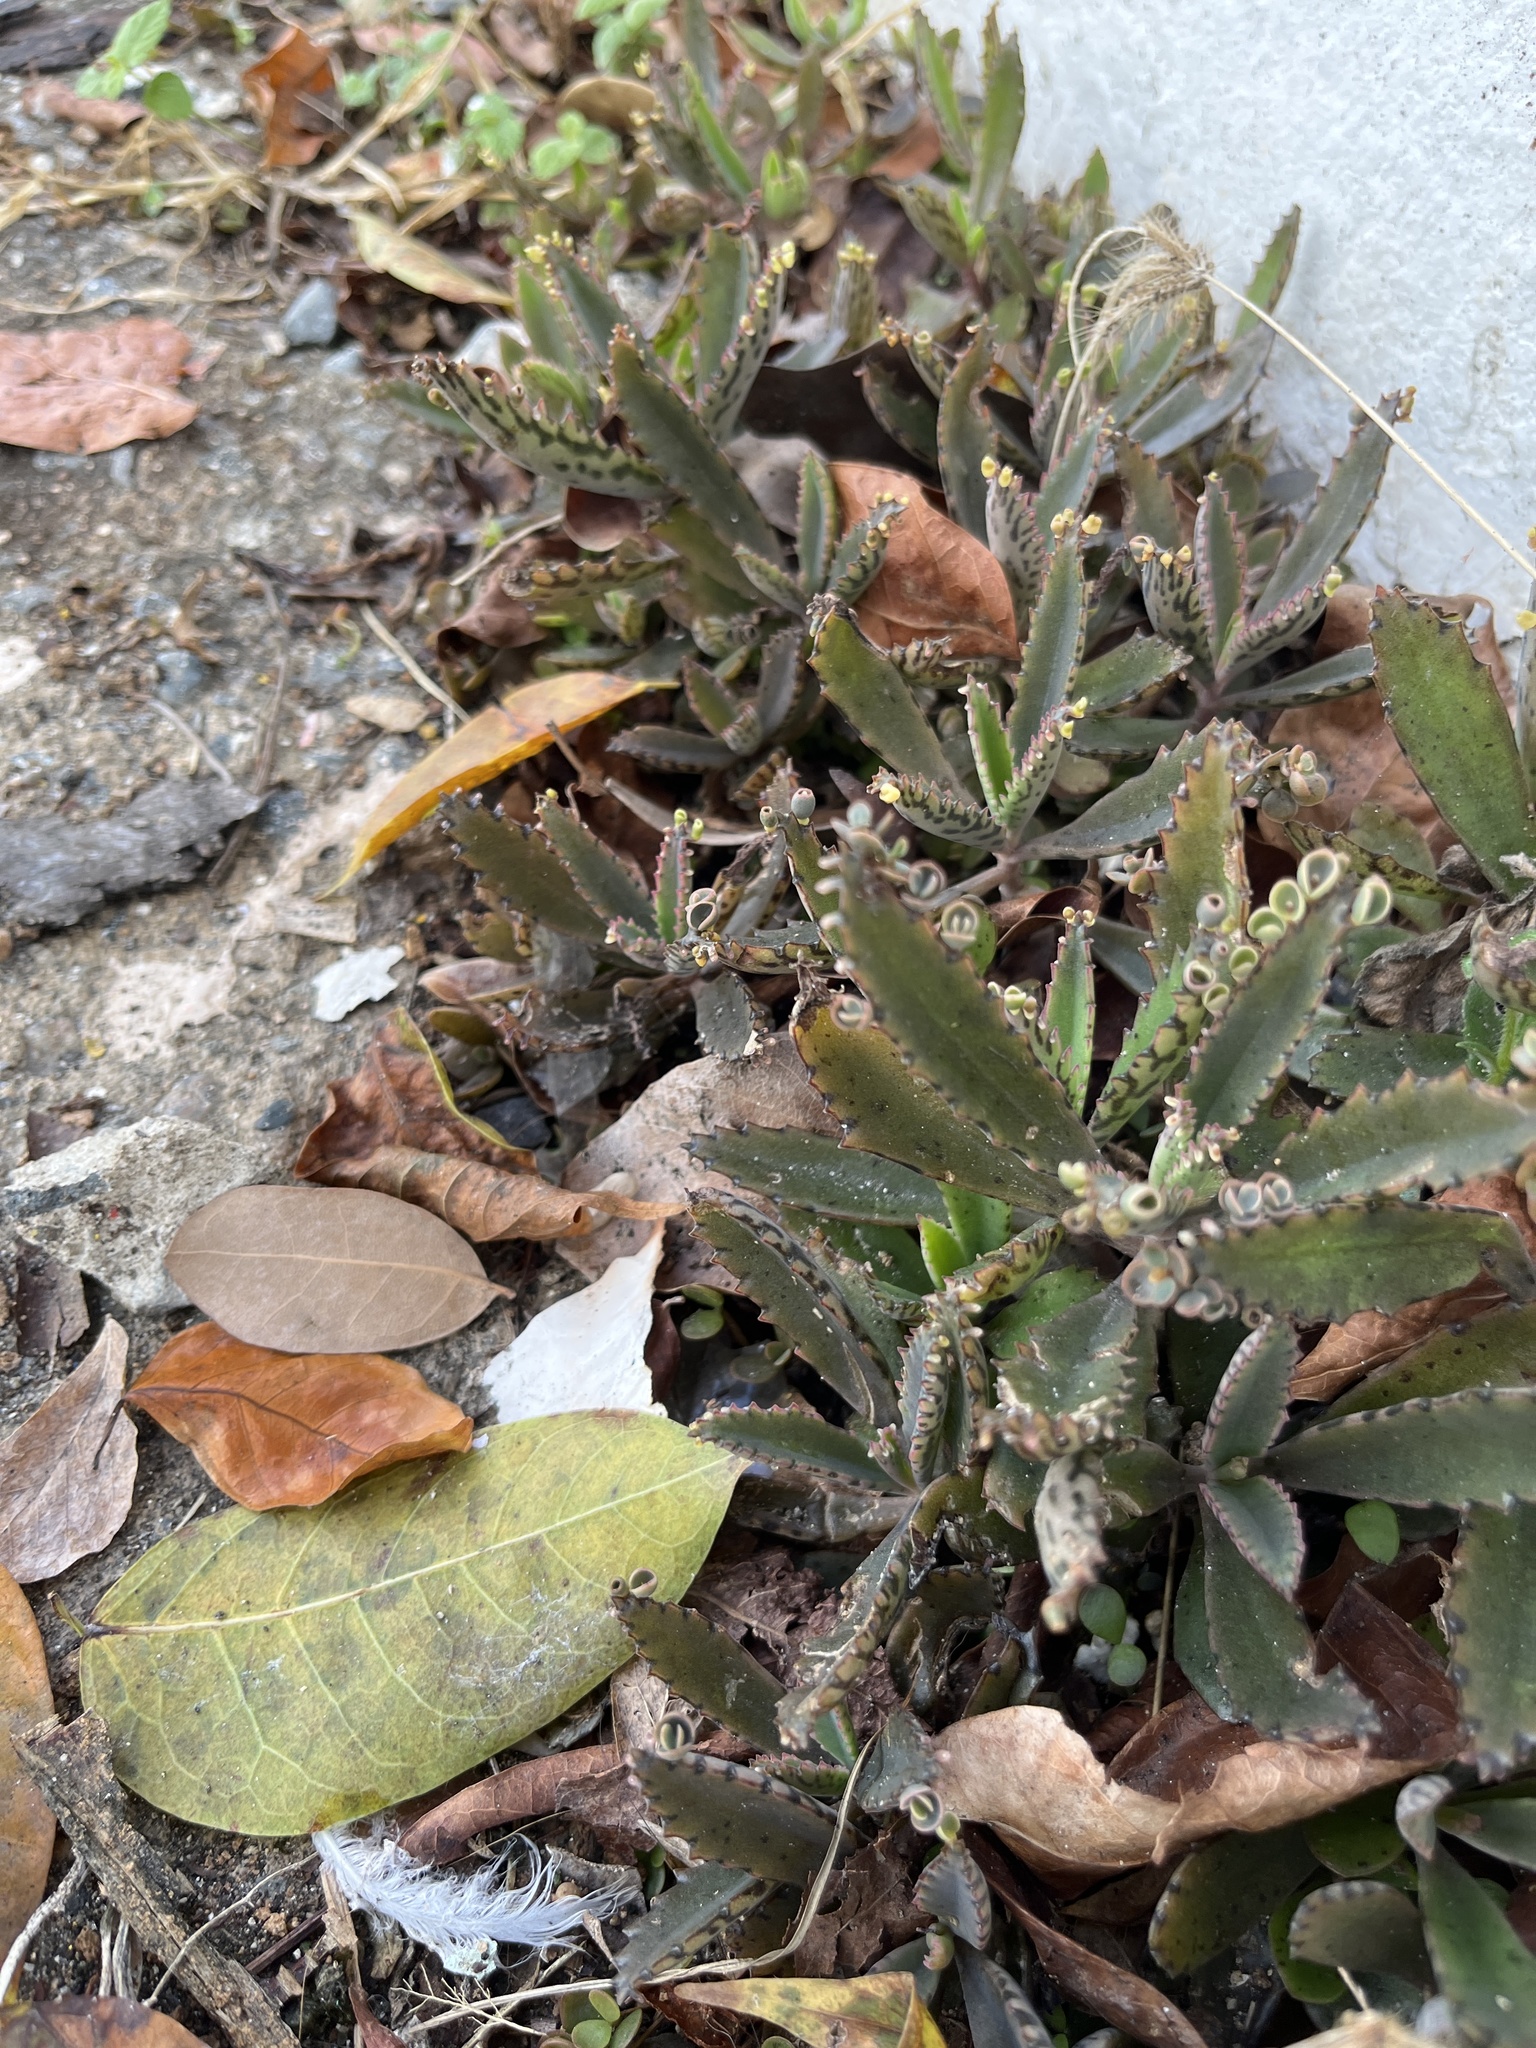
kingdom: Plantae
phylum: Tracheophyta
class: Magnoliopsida
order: Saxifragales
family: Crassulaceae
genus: Kalanchoe
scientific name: Kalanchoe houghtonii
